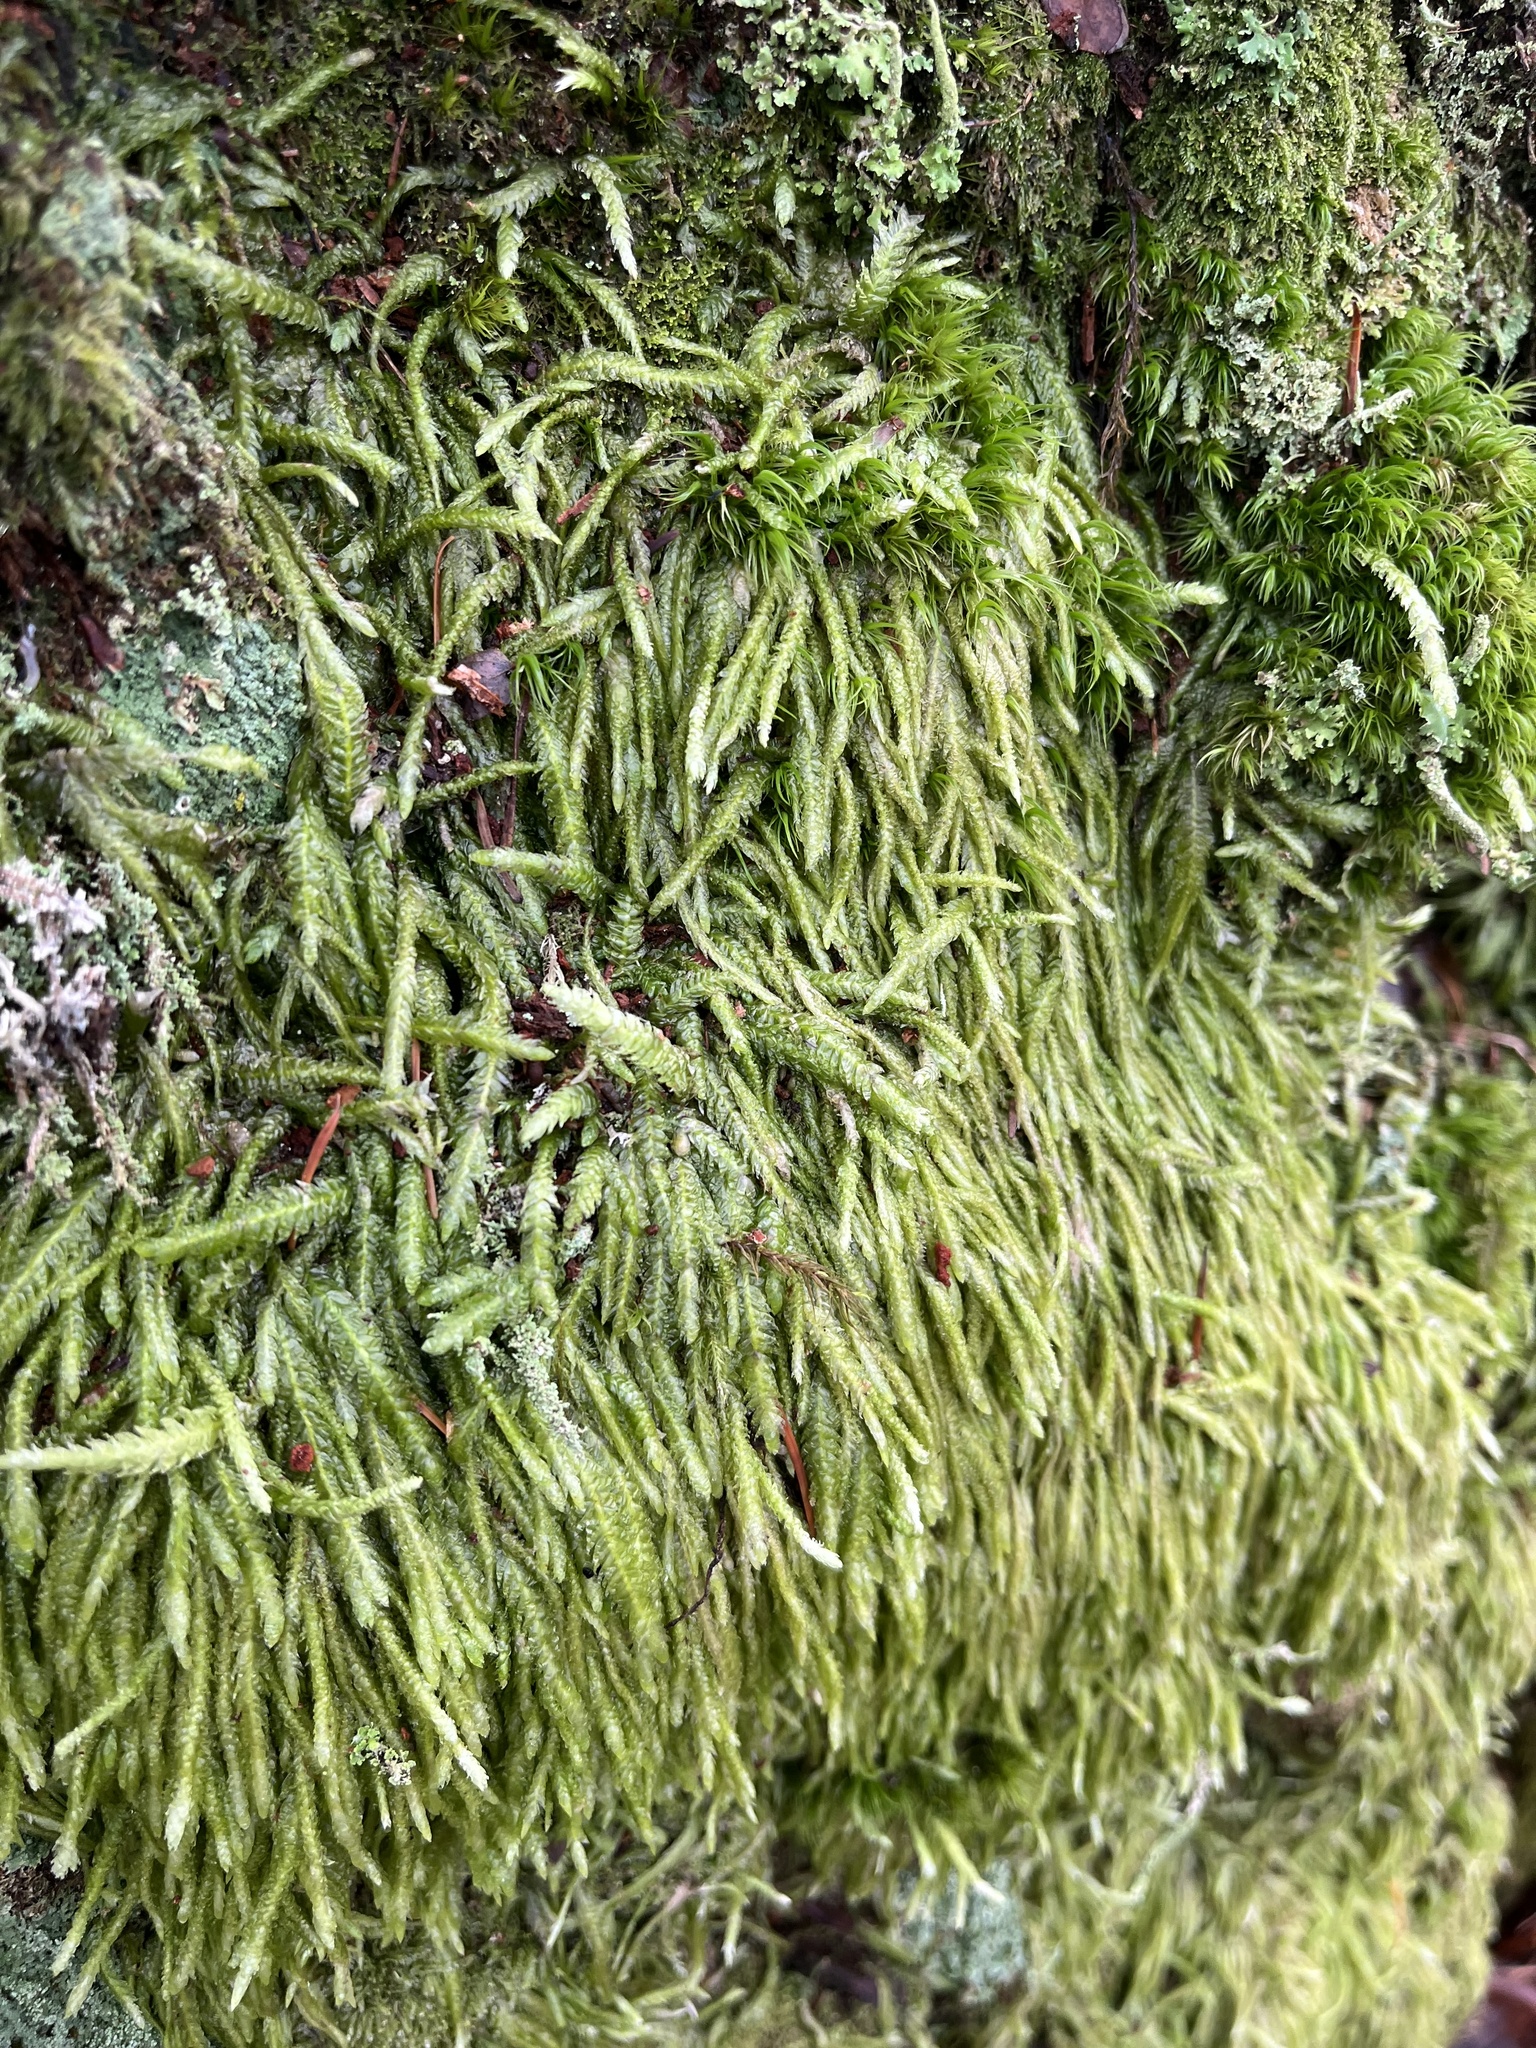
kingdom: Plantae
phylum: Bryophyta
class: Bryopsida
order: Hypnales
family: Plagiotheciaceae
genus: Plagiothecium
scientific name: Plagiothecium undulatum
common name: Waved silk-moss
